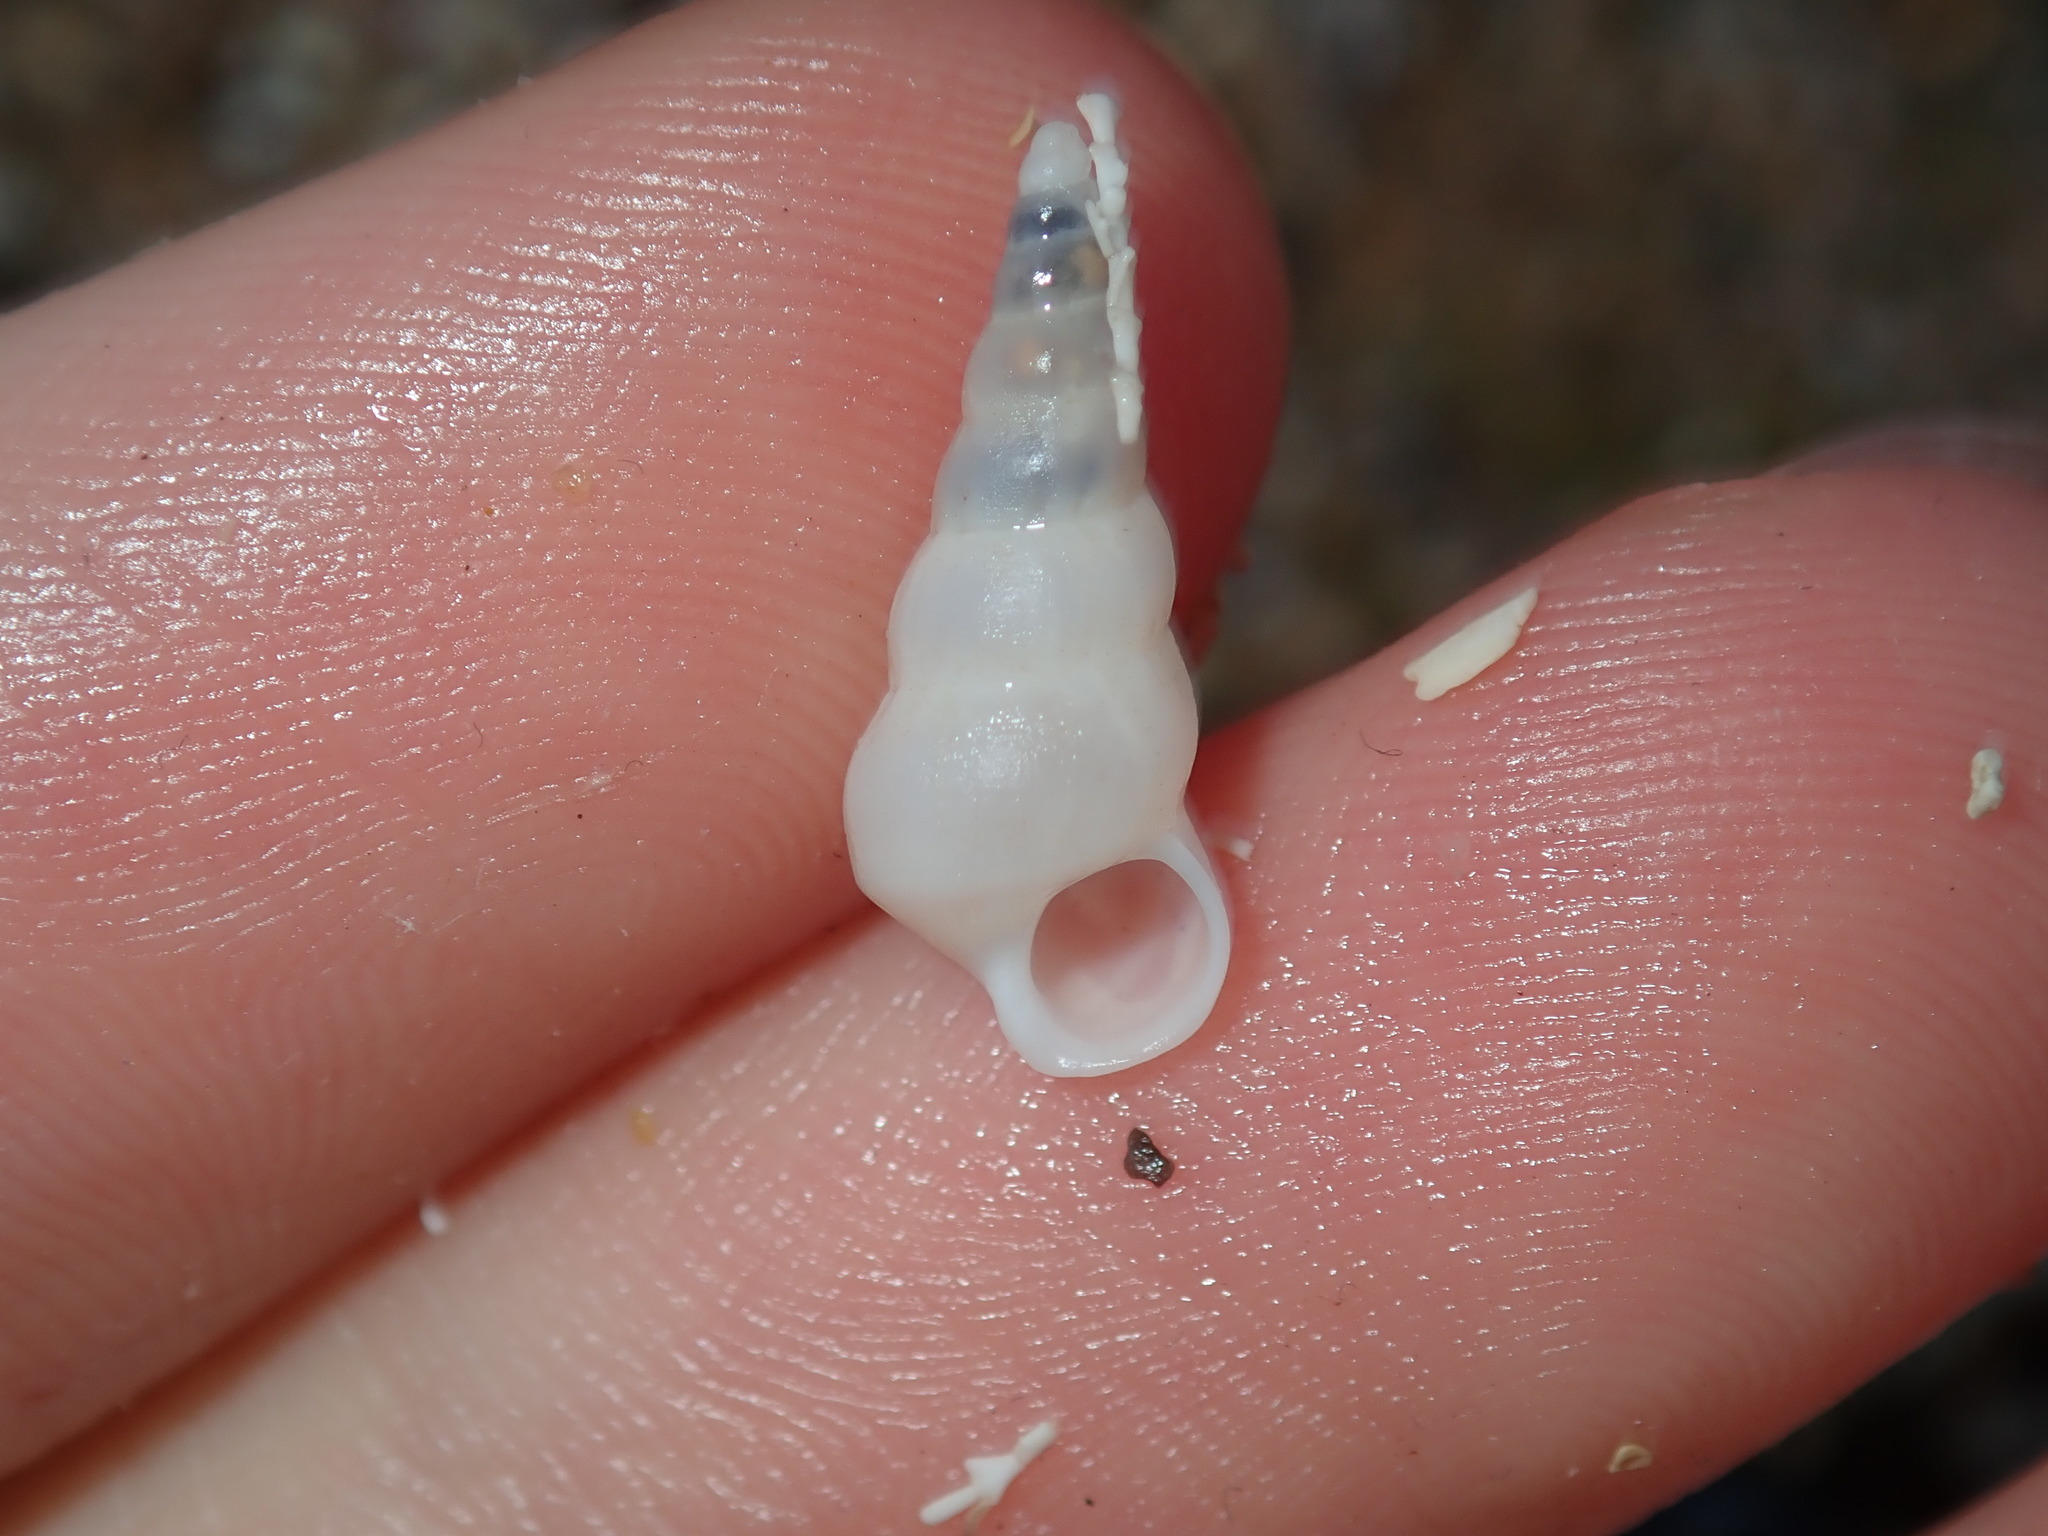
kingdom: Animalia
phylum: Mollusca
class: Gastropoda
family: Epitoniidae
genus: Opalia
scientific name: Opalia ballinensis
